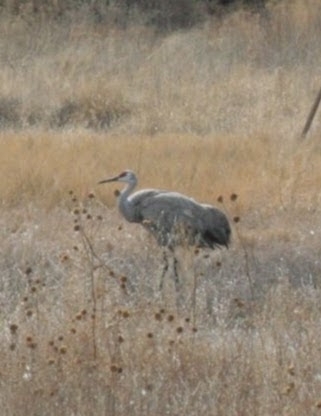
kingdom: Animalia
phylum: Chordata
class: Aves
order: Gruiformes
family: Gruidae
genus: Grus
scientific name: Grus canadensis
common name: Sandhill crane
